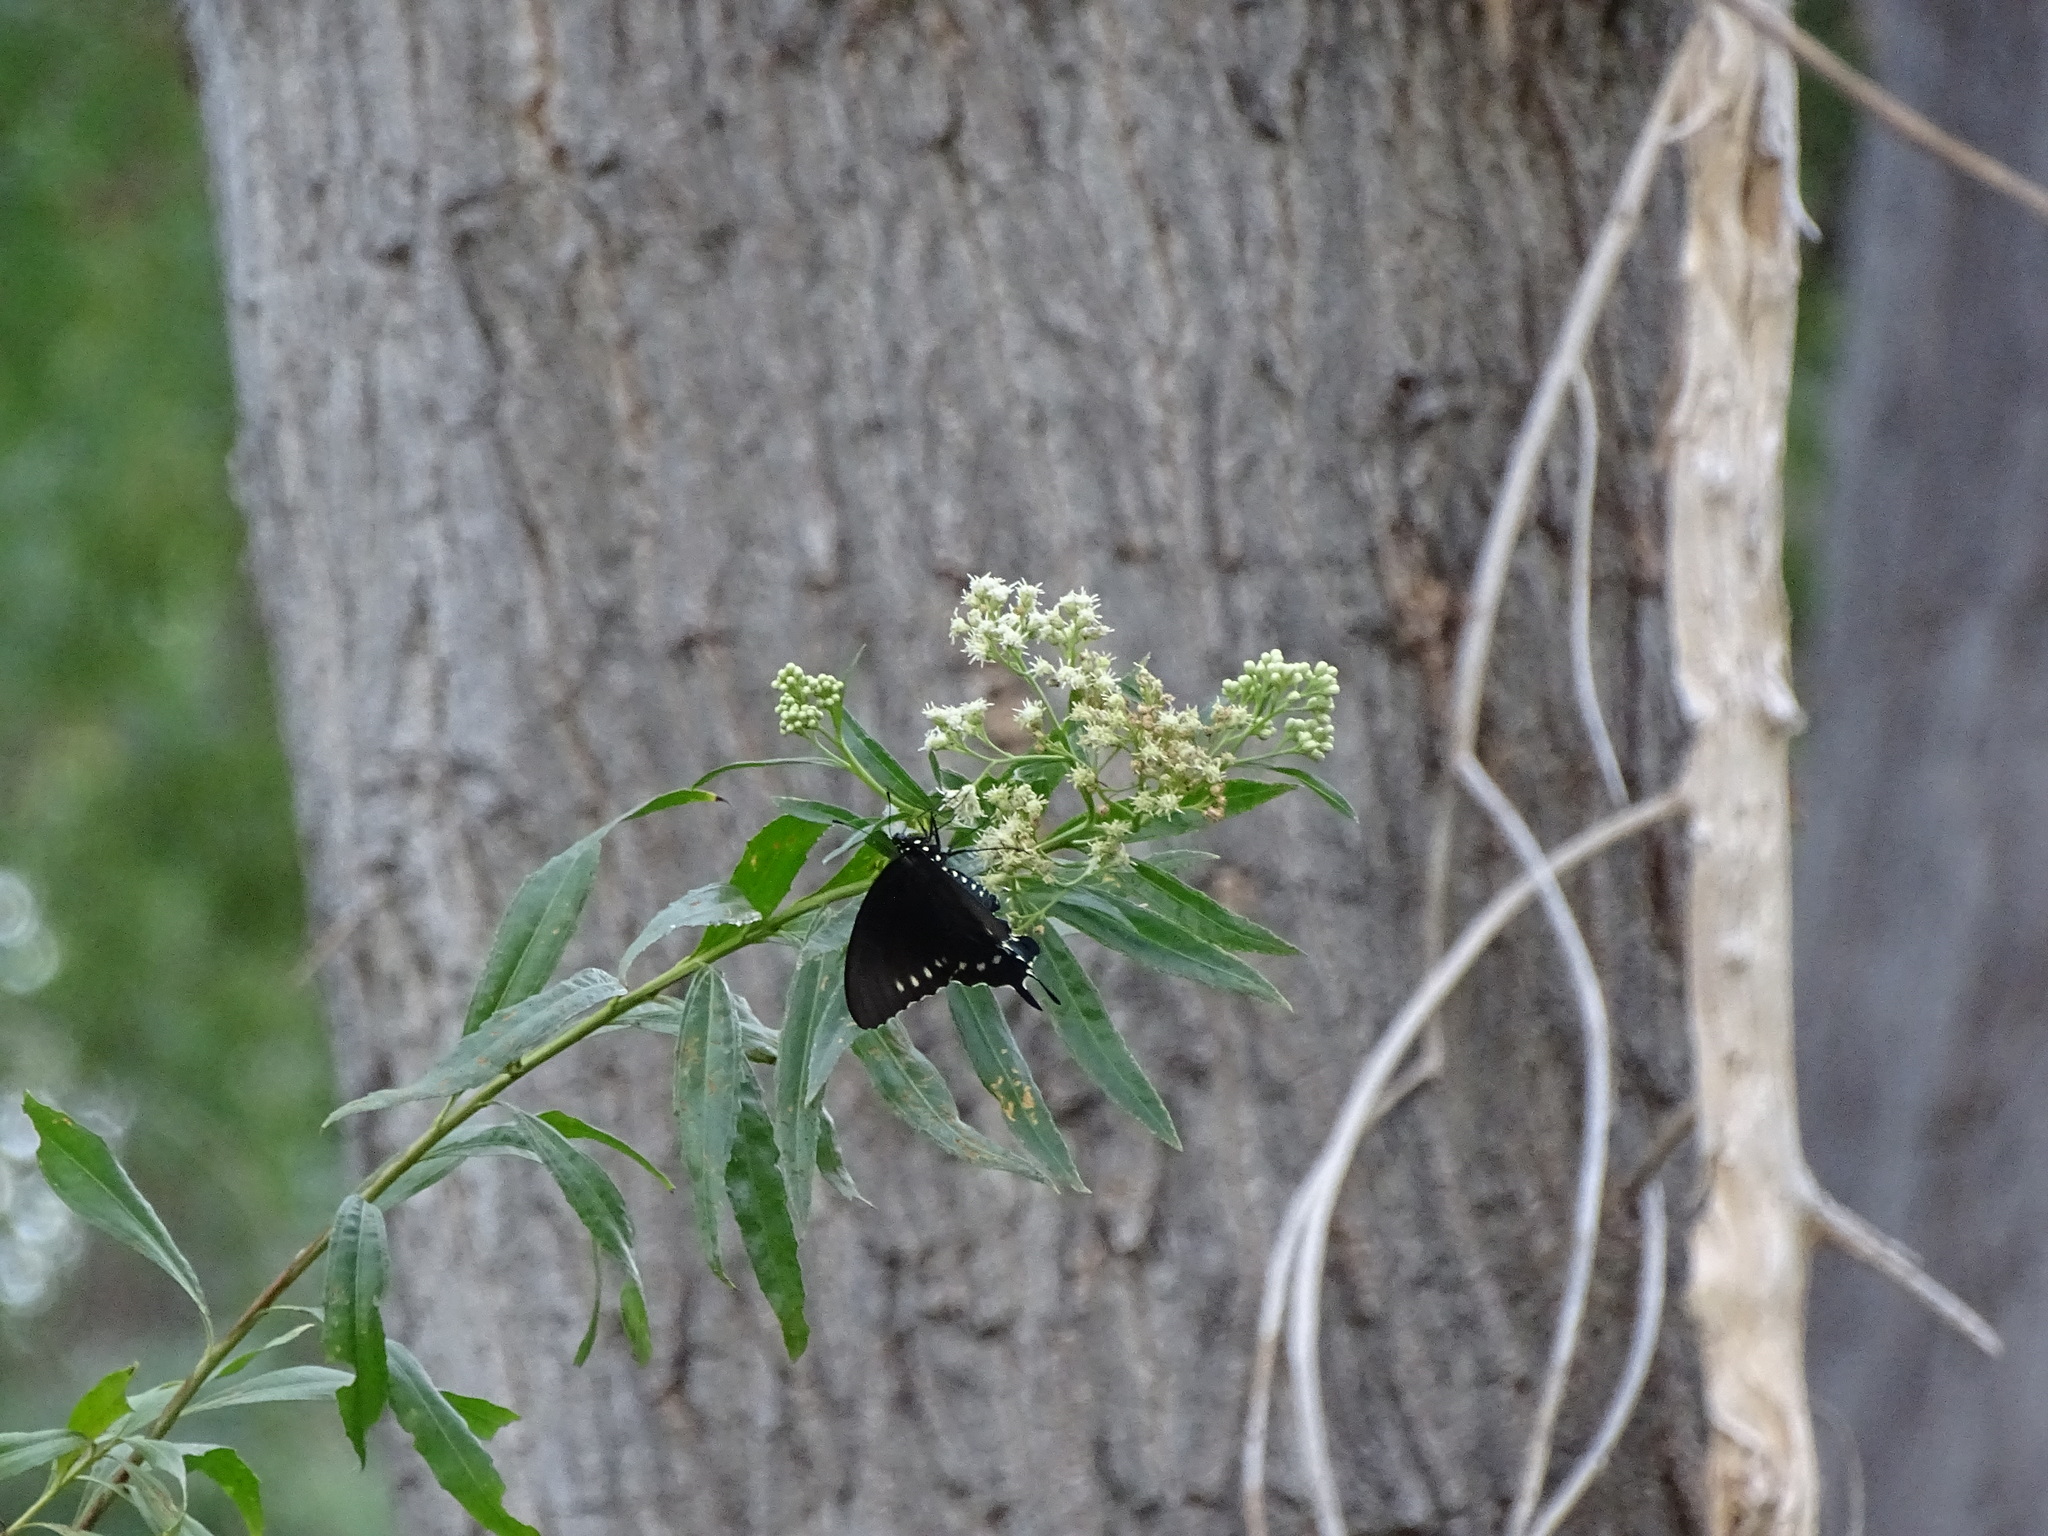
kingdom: Animalia
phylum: Arthropoda
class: Insecta
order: Lepidoptera
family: Papilionidae
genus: Battus
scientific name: Battus philenor
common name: Pipevine swallowtail
